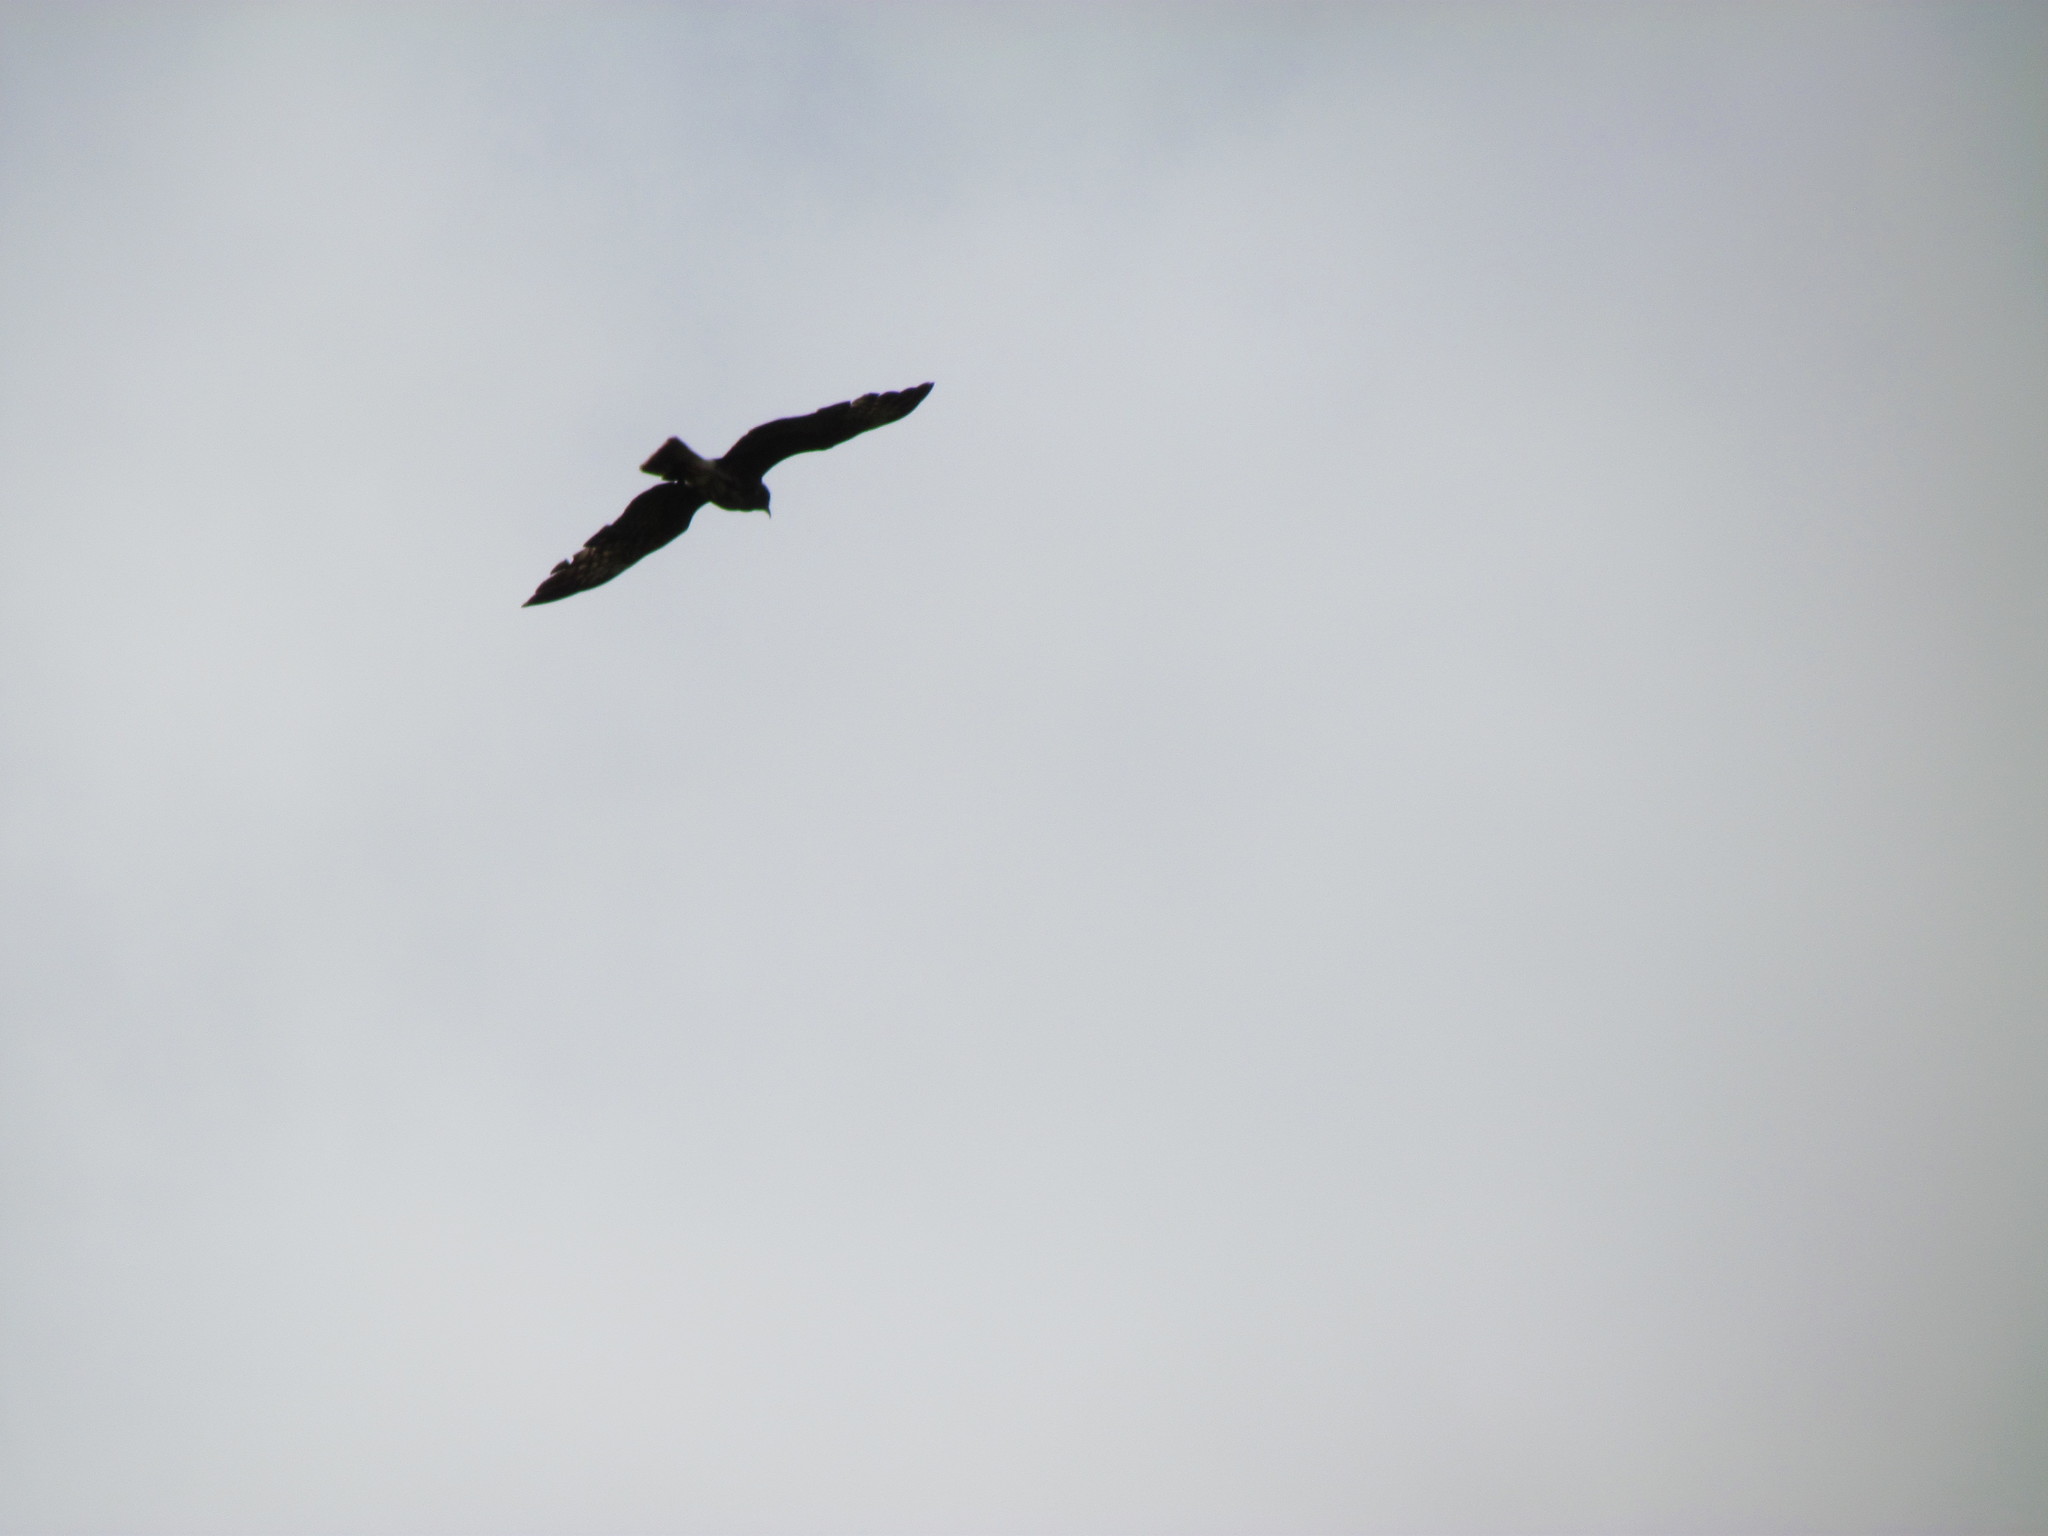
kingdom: Animalia
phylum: Chordata
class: Aves
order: Accipitriformes
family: Accipitridae
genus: Rostrhamus
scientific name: Rostrhamus sociabilis
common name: Snail kite
